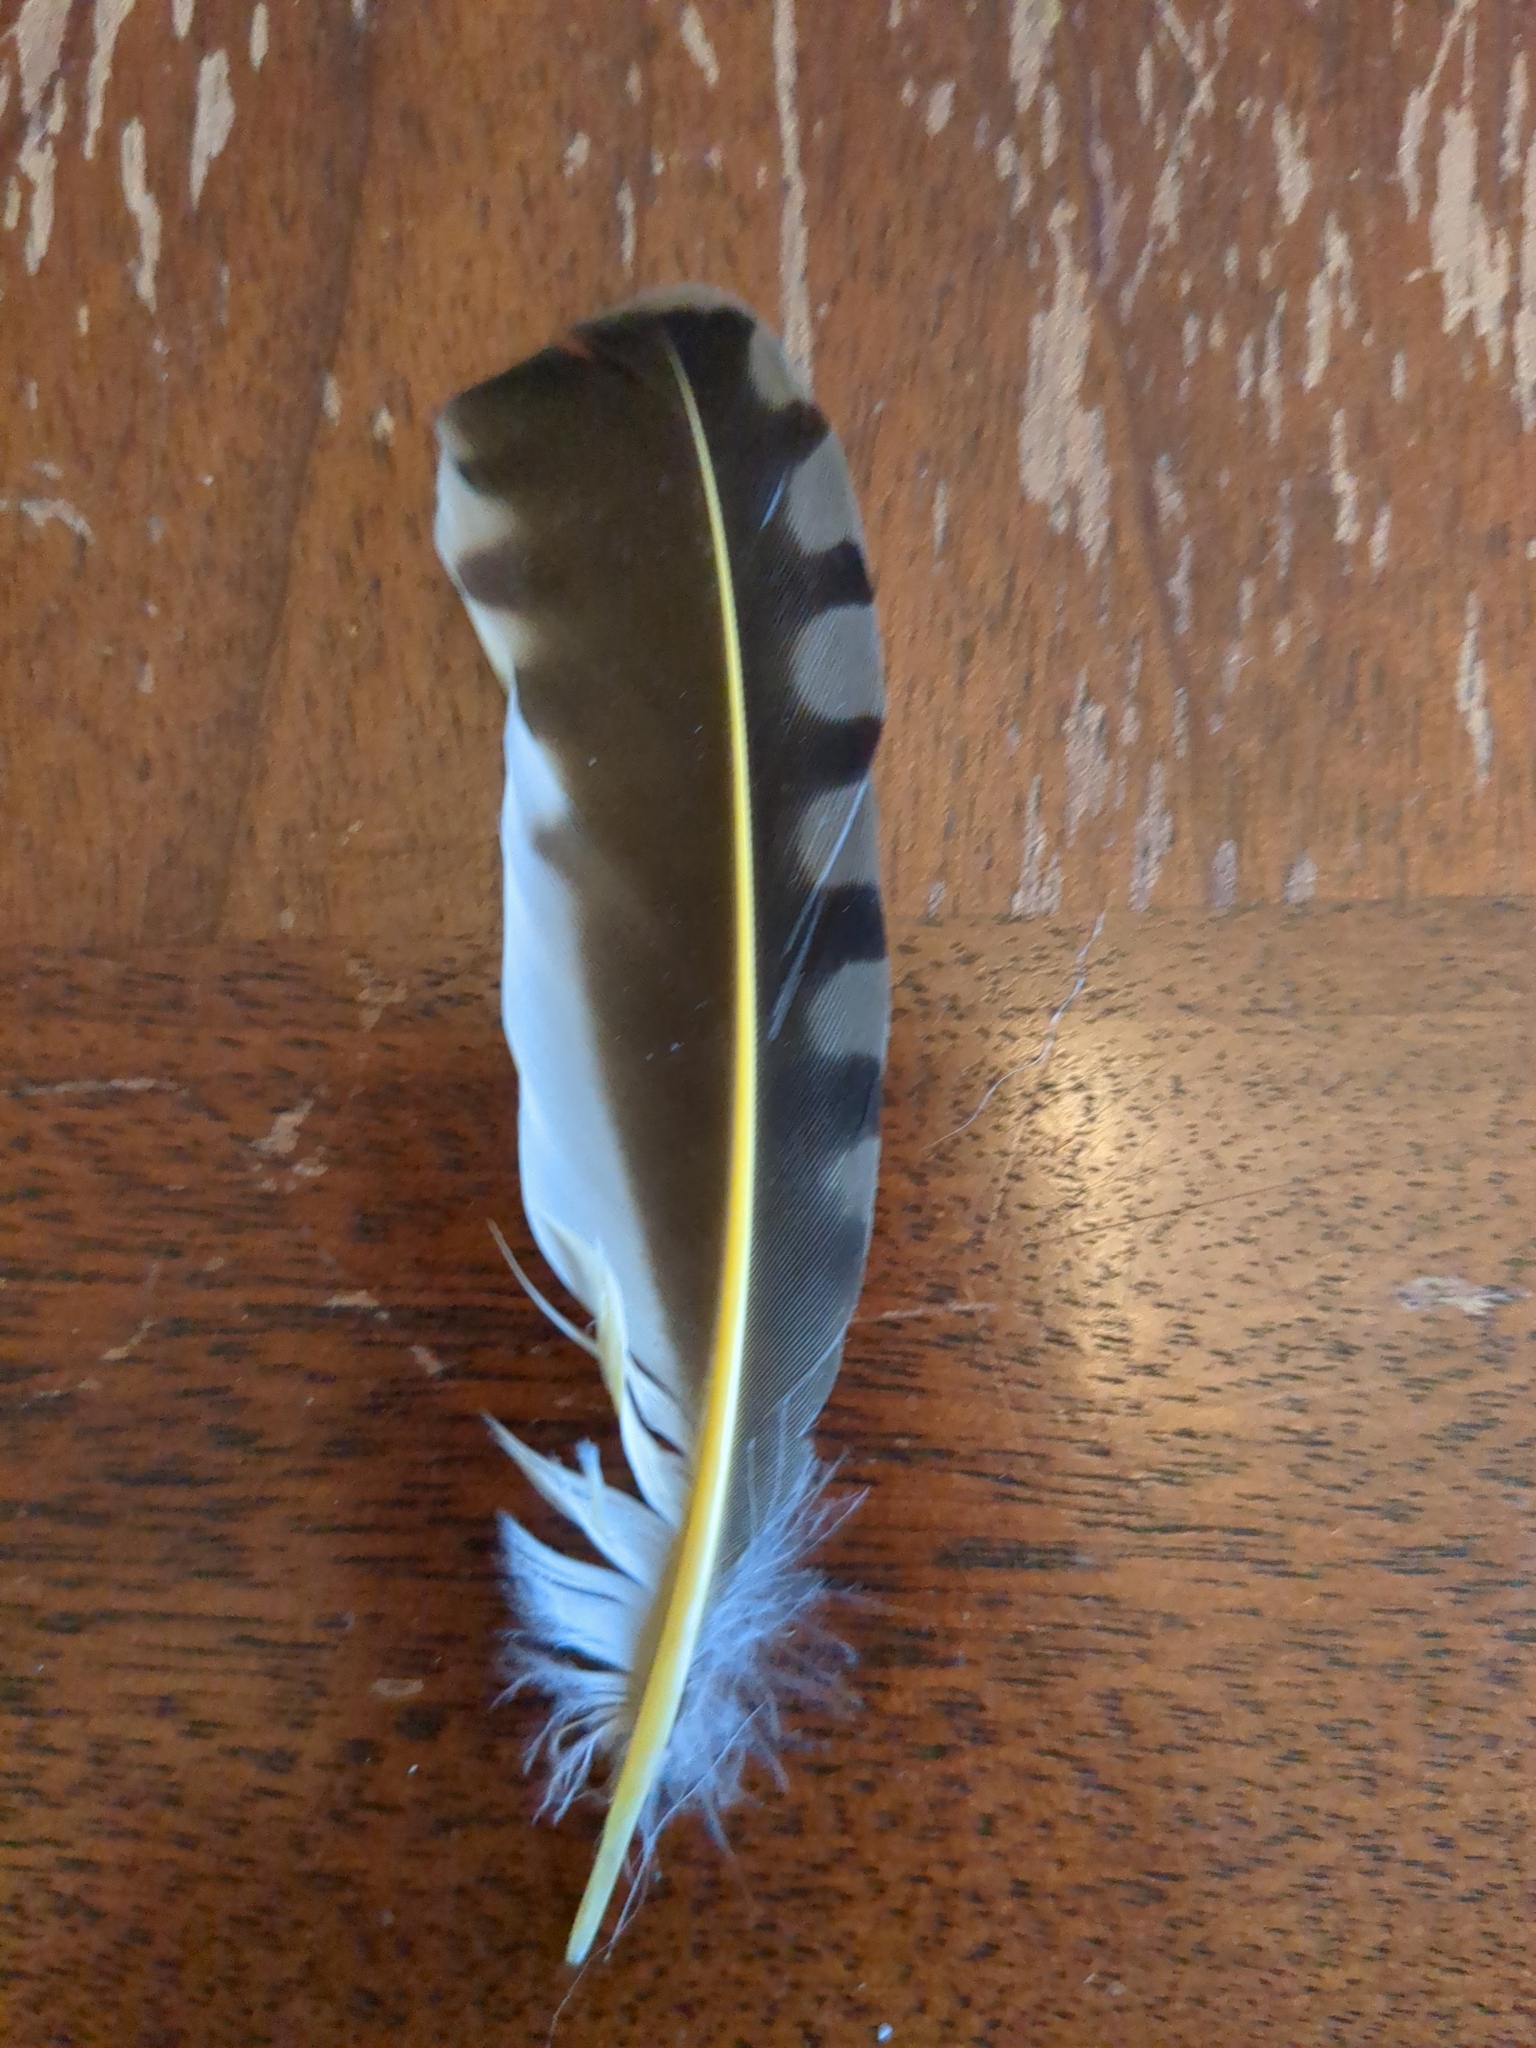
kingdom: Animalia
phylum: Chordata
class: Aves
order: Piciformes
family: Picidae
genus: Colaptes
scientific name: Colaptes auratus
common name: Northern flicker
